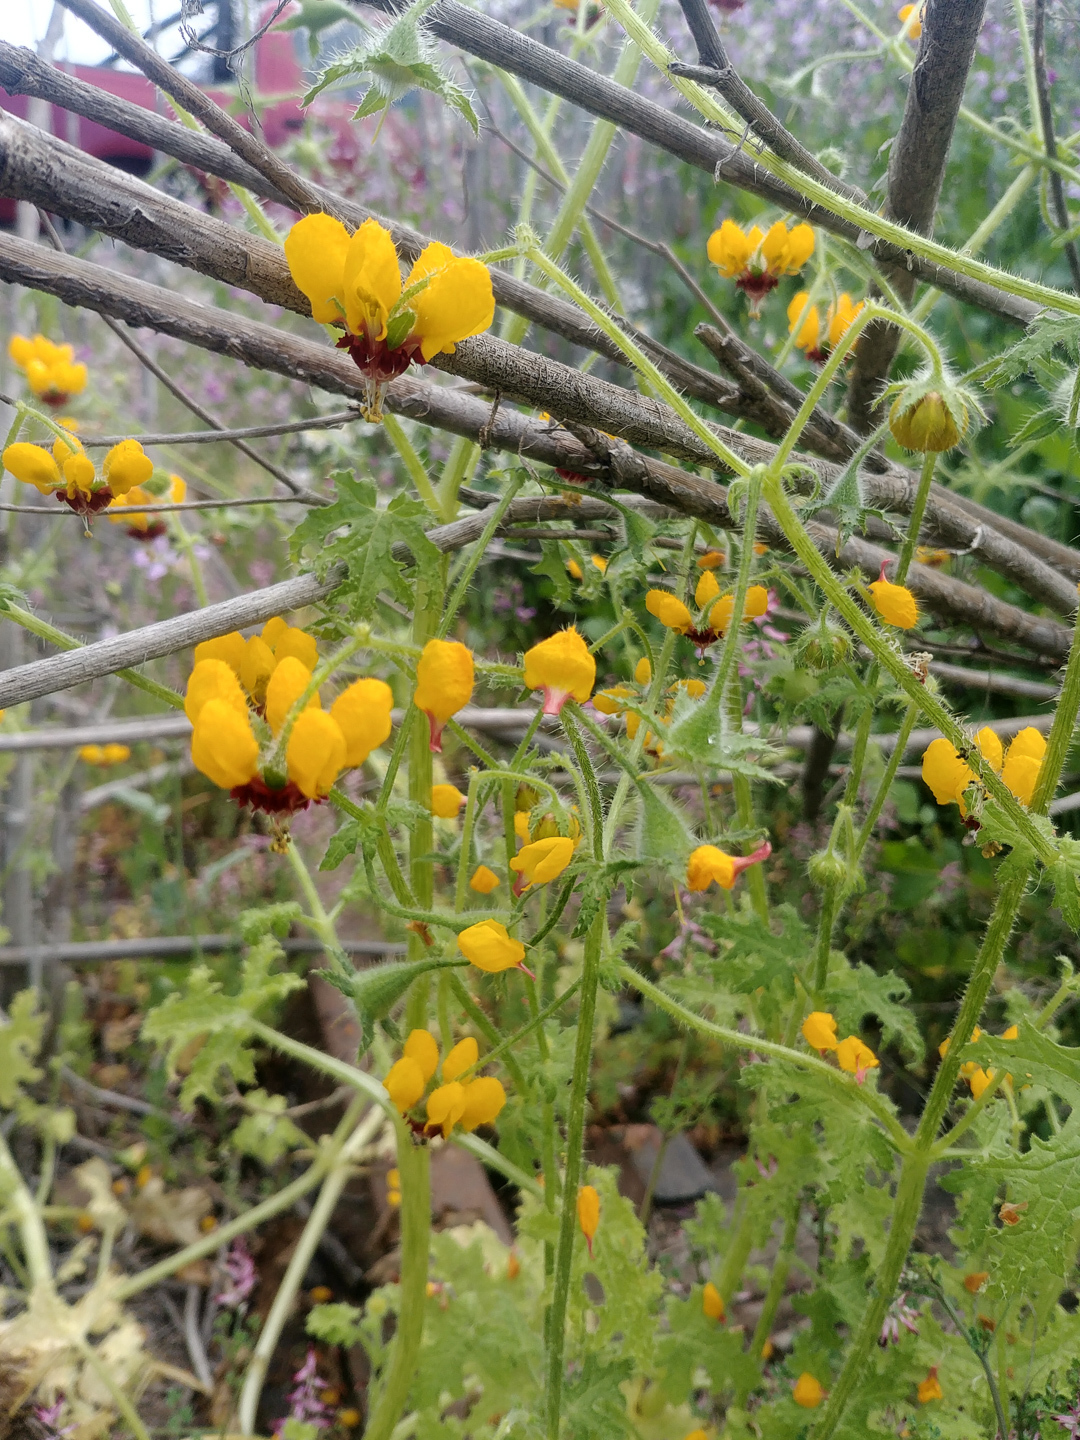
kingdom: Plantae
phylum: Tracheophyta
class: Magnoliopsida
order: Cornales
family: Loasaceae
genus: Loasa
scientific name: Loasa tricolor
